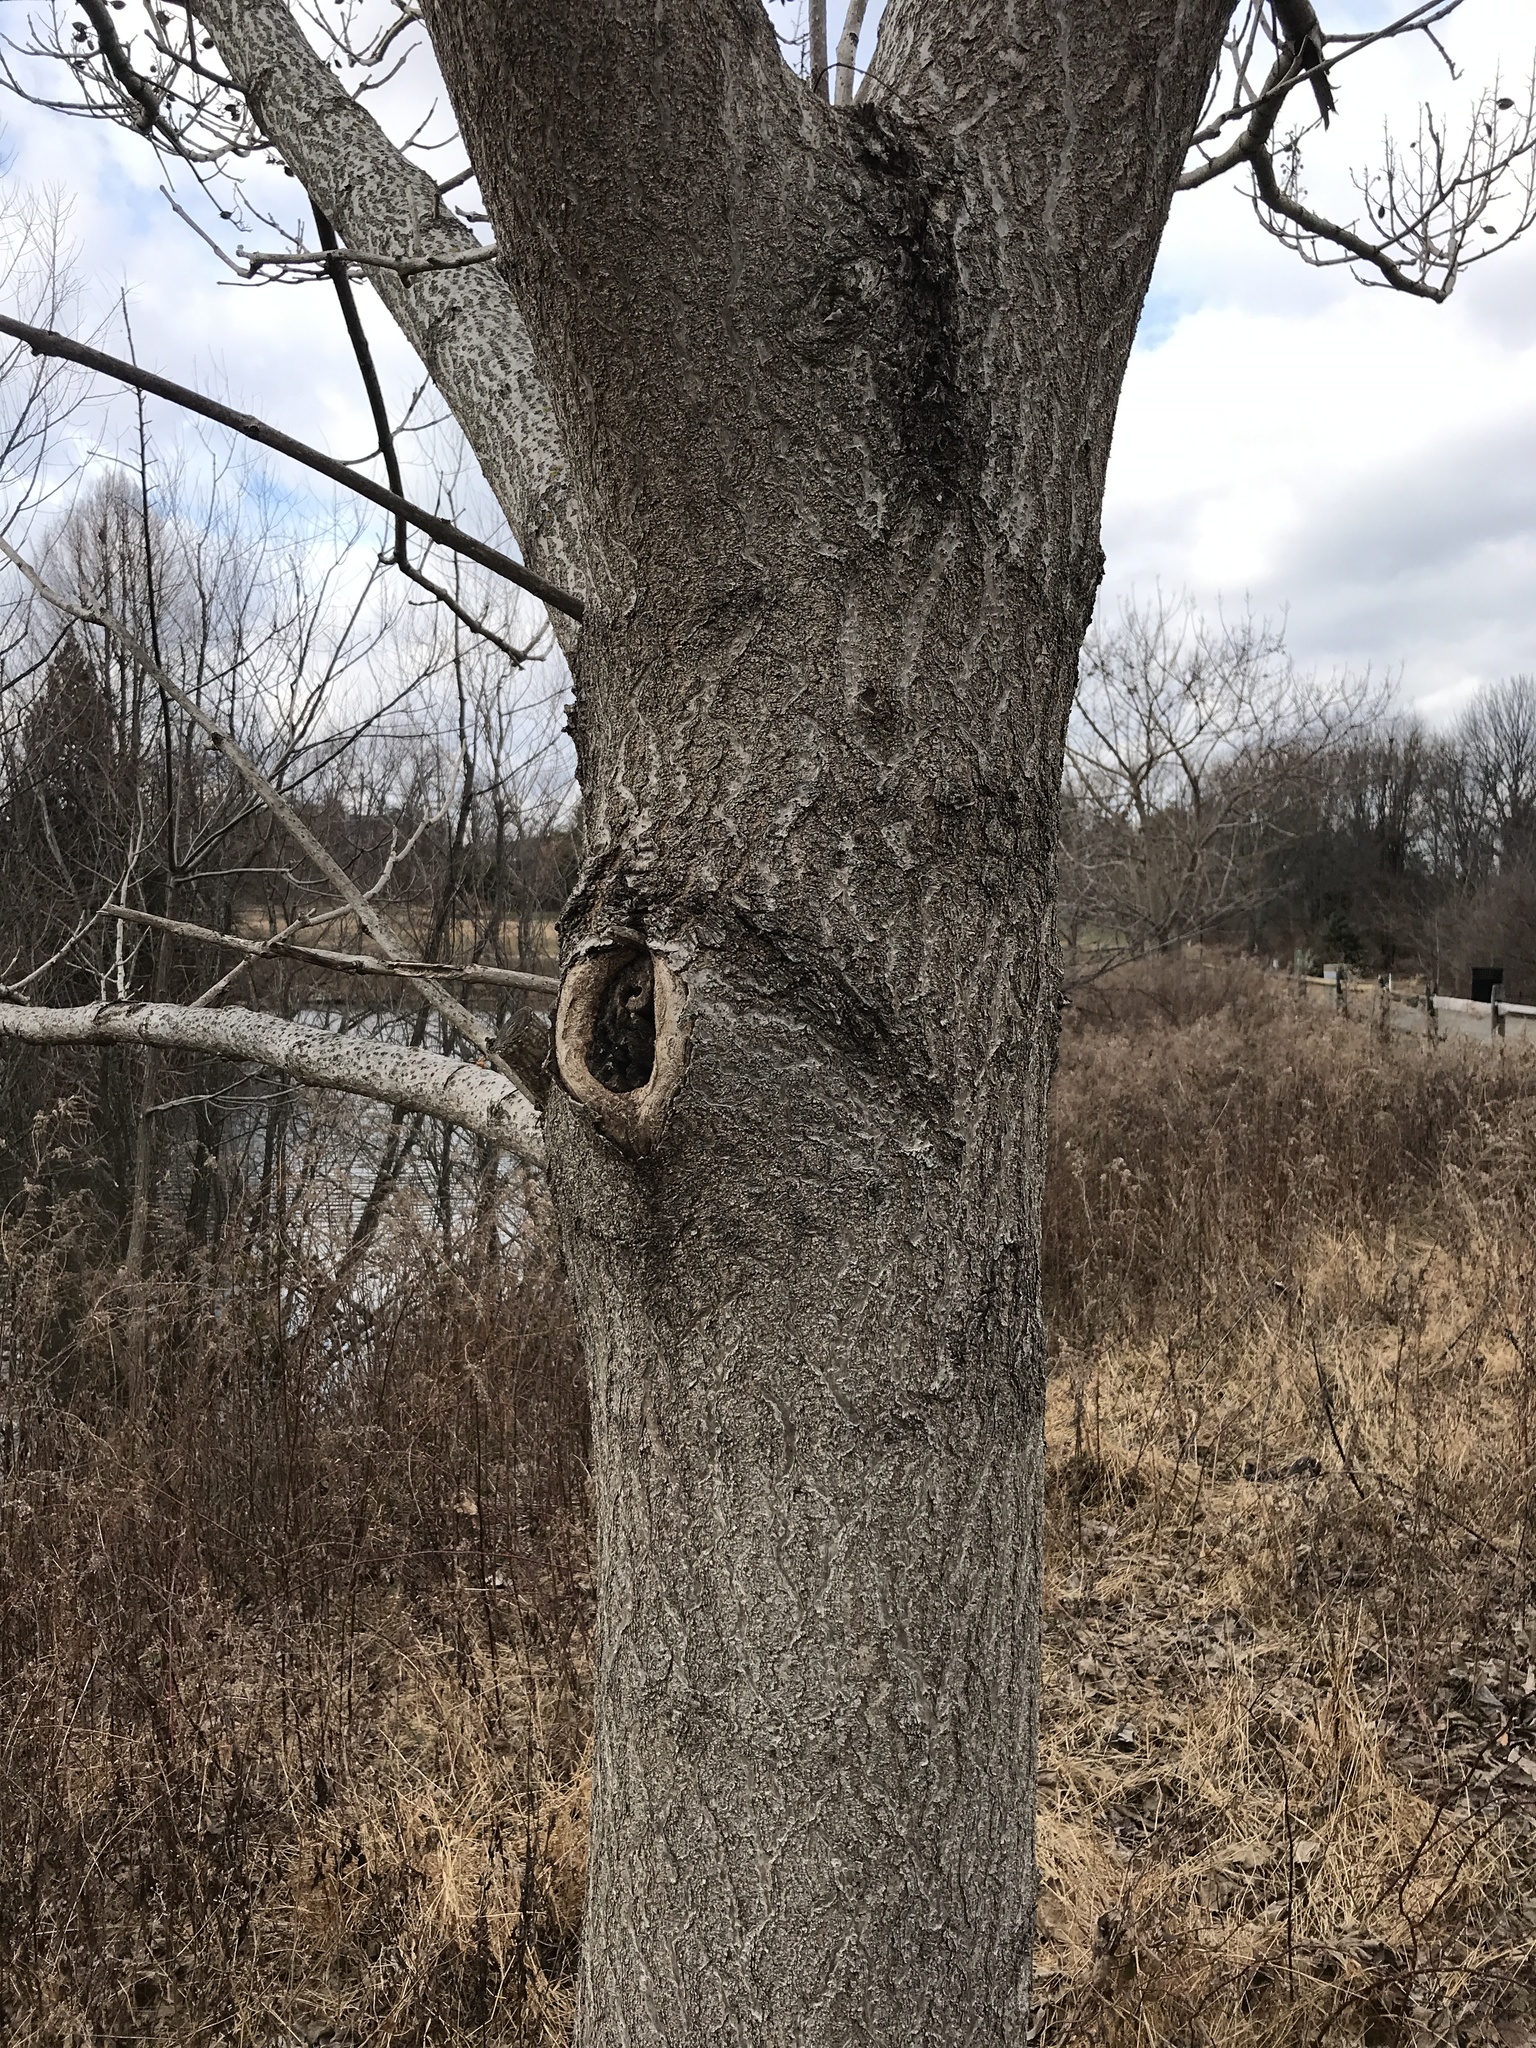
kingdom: Plantae
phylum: Tracheophyta
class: Magnoliopsida
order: Lamiales
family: Paulowniaceae
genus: Paulownia
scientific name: Paulownia tomentosa
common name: Foxglove-tree
